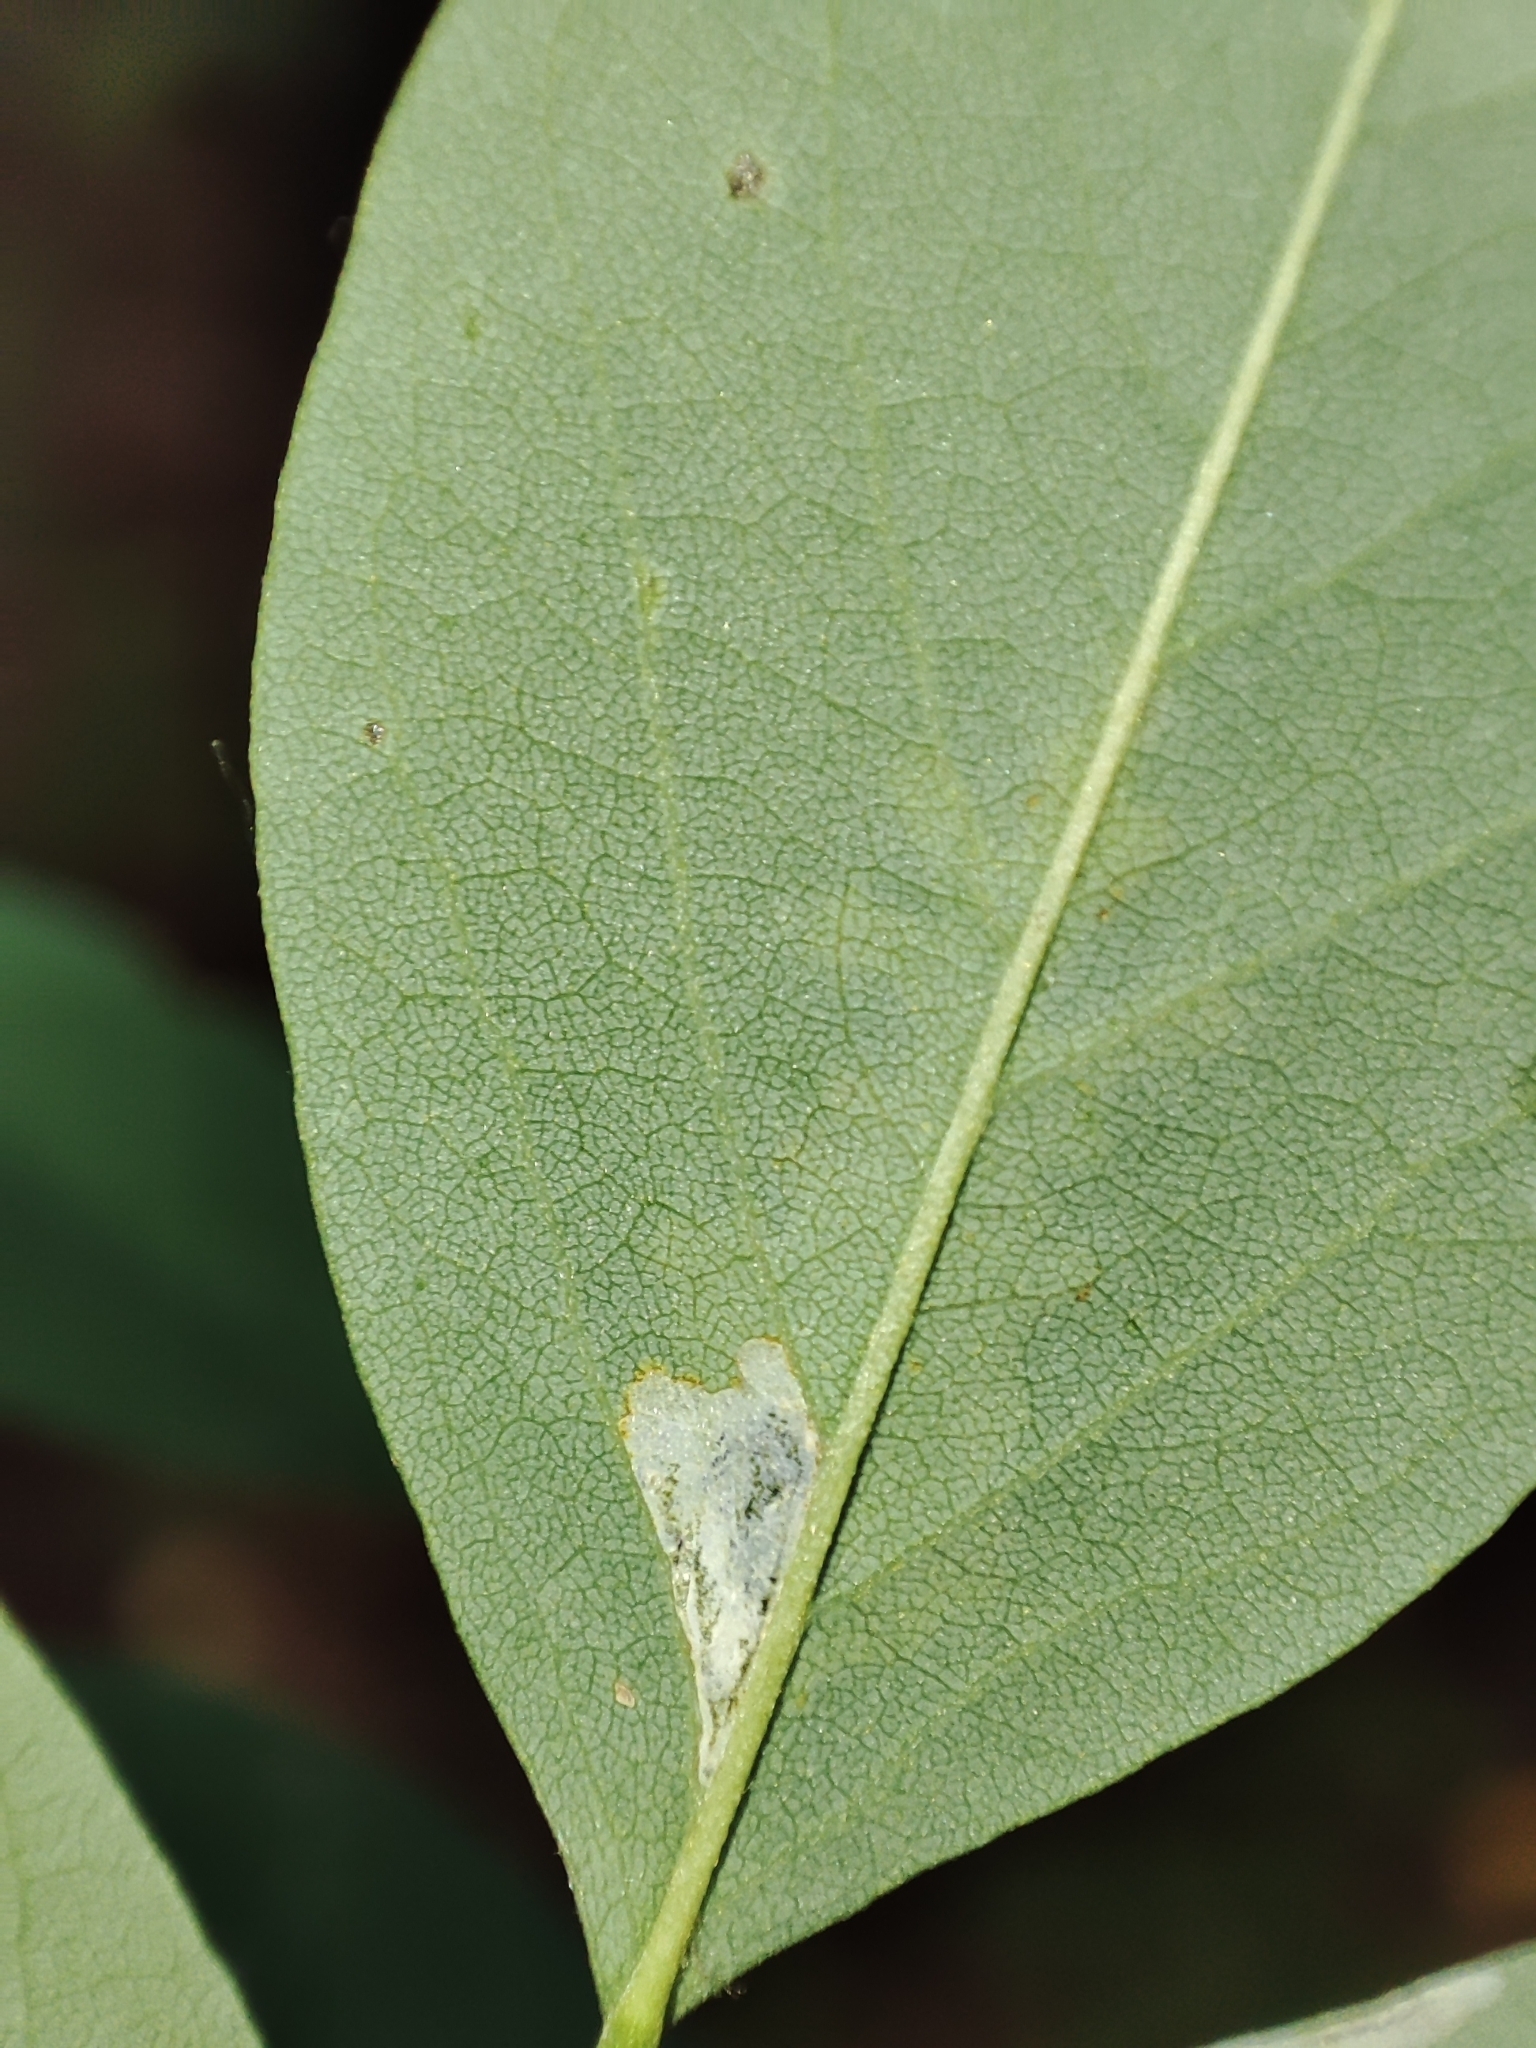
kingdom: Animalia
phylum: Arthropoda
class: Insecta
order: Lepidoptera
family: Gracillariidae
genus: Parectopa
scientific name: Parectopa robiniella
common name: Locust digitate leafminer
